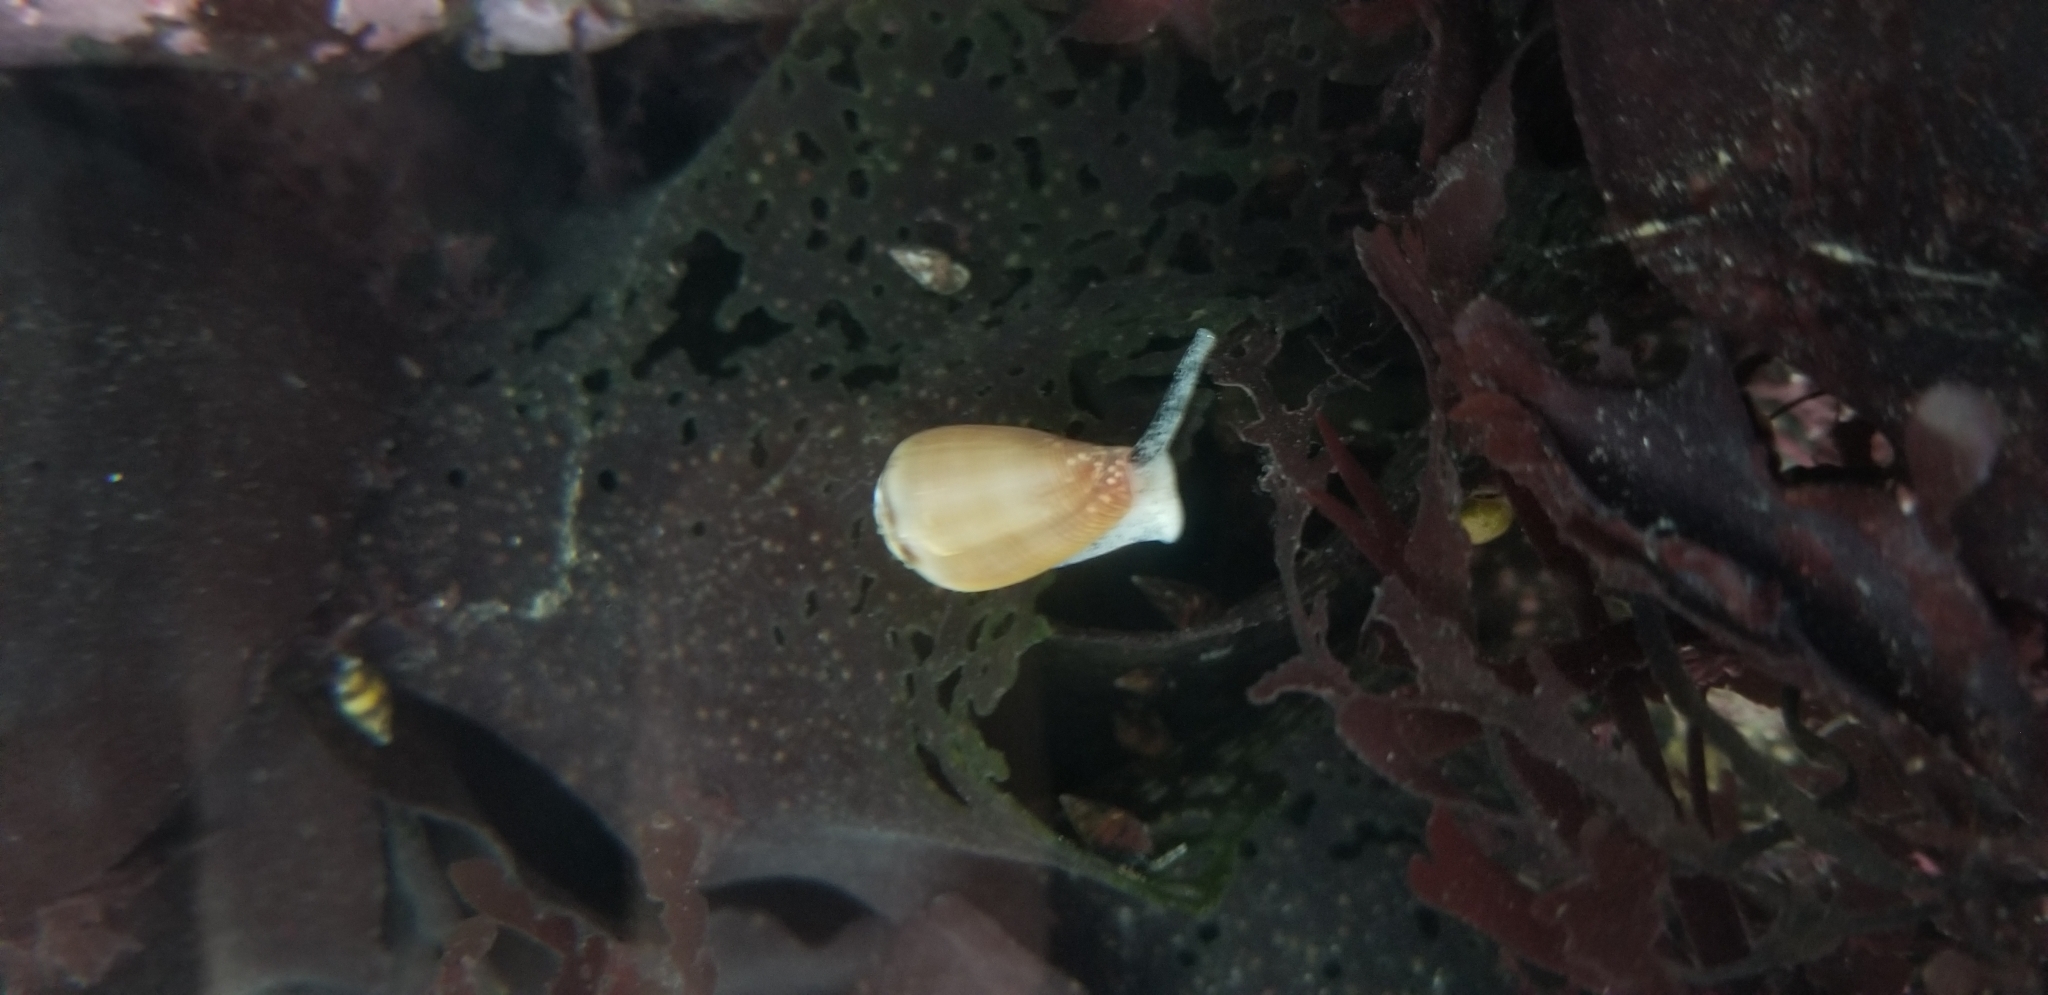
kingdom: Animalia
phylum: Mollusca
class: Gastropoda
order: Neogastropoda
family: Conidae
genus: Californiconus
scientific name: Californiconus californicus
